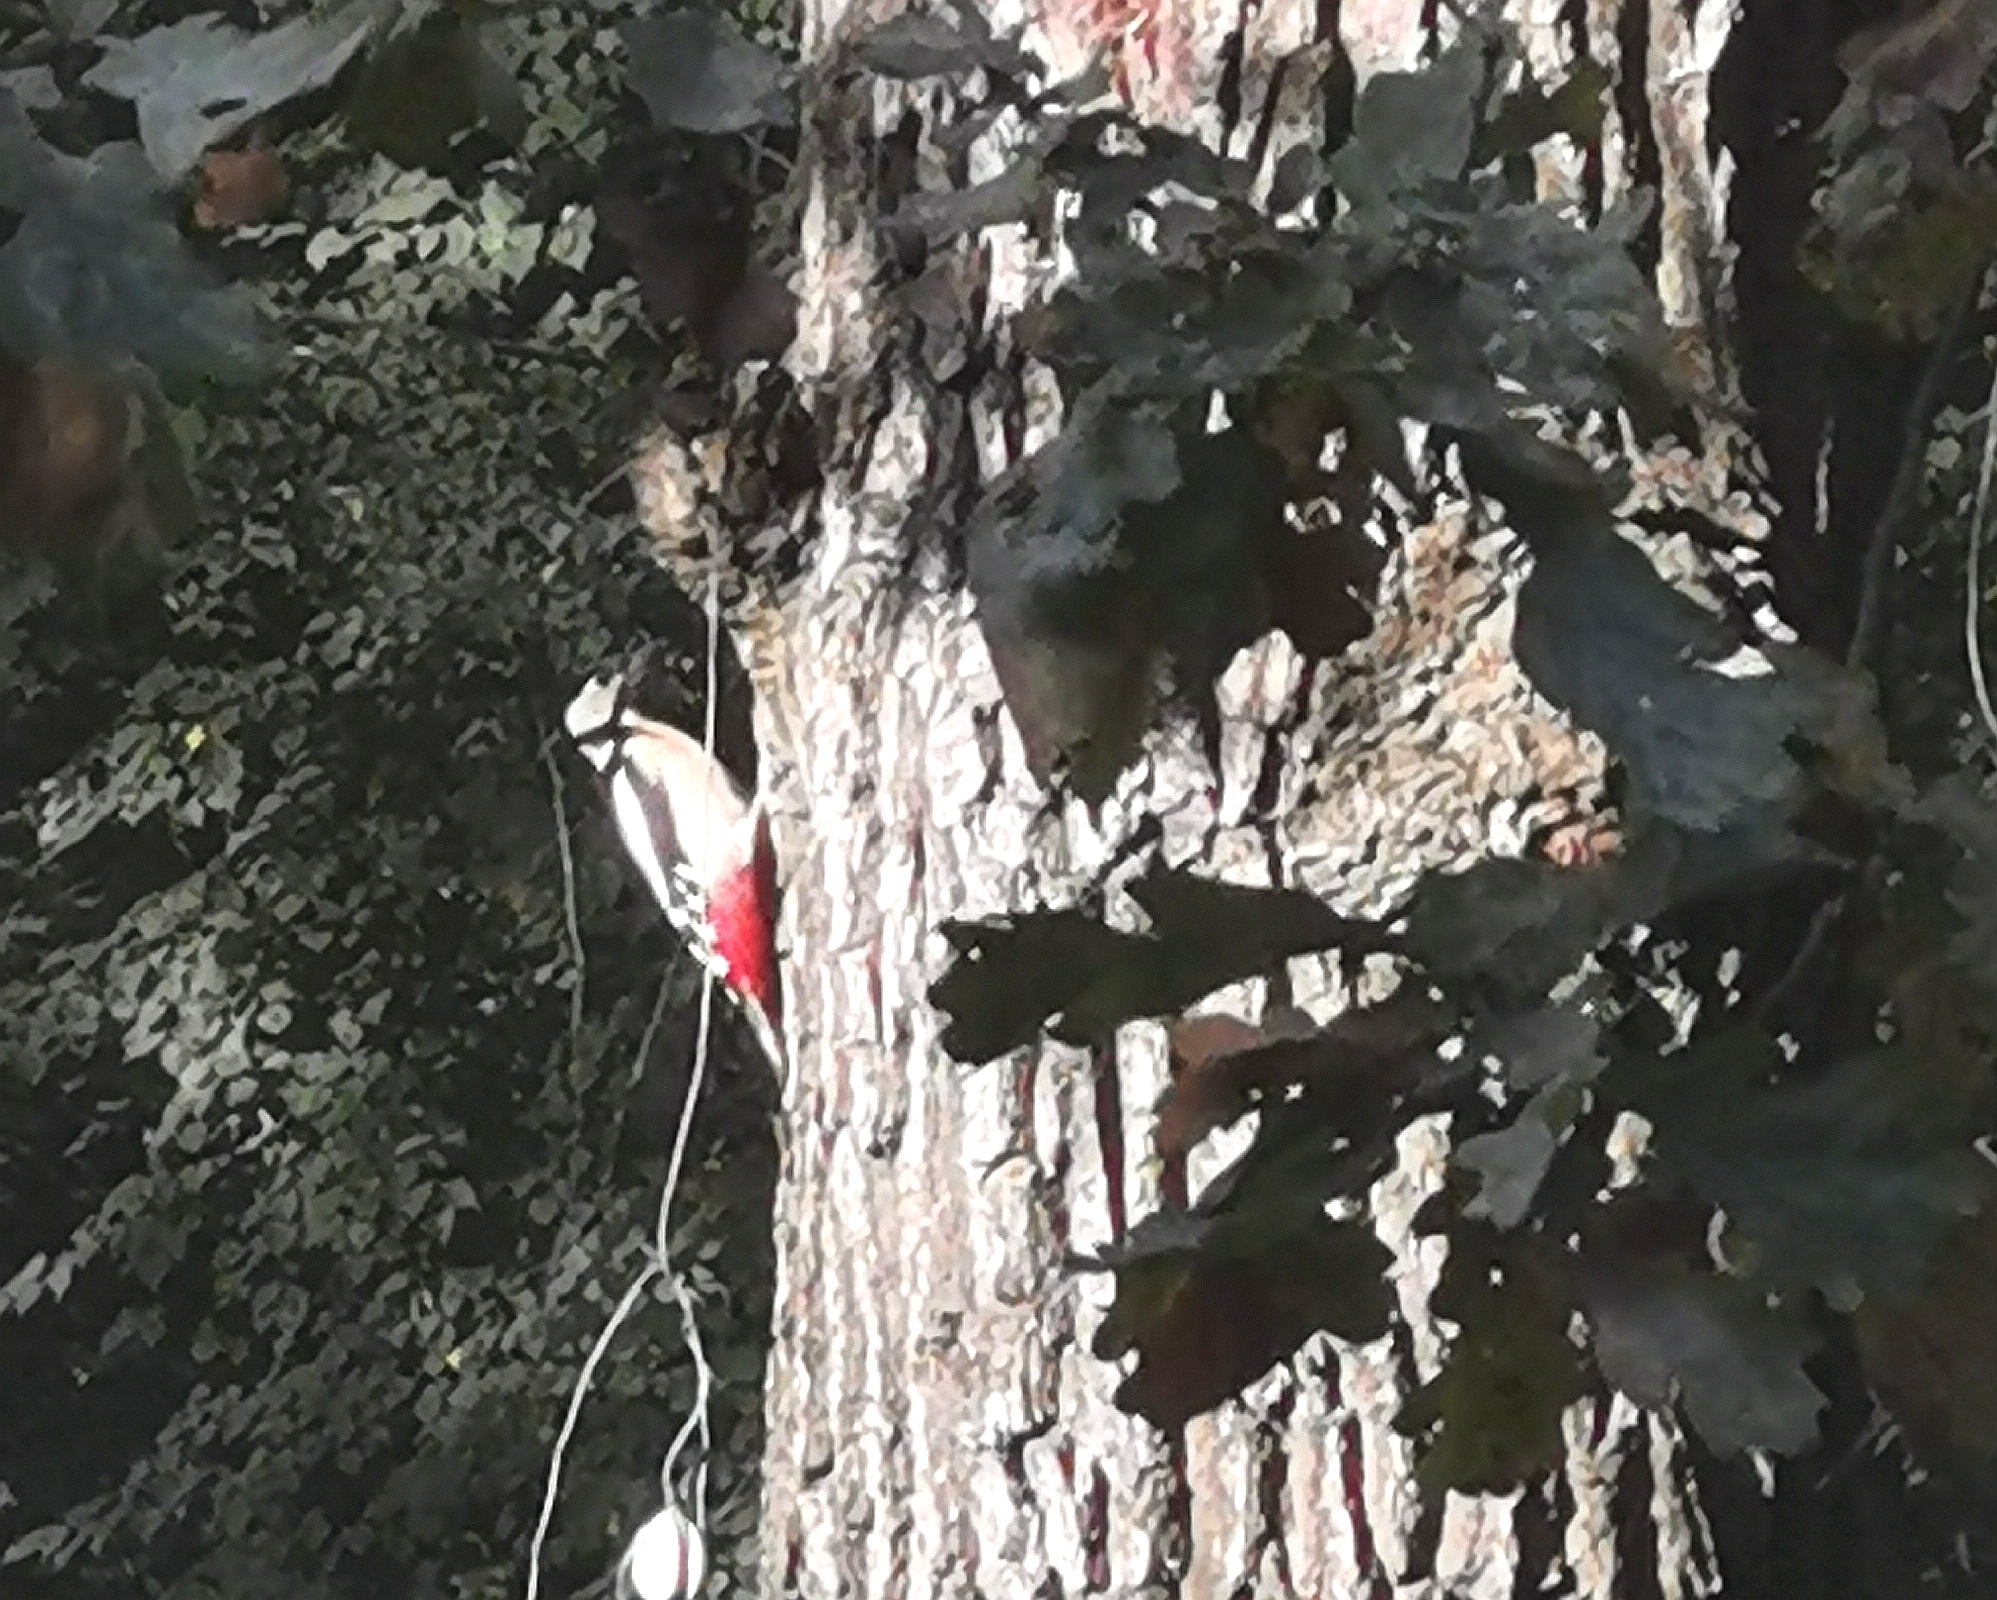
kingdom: Animalia
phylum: Chordata
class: Aves
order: Piciformes
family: Picidae
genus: Dendrocopos
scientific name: Dendrocopos major
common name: Great spotted woodpecker
